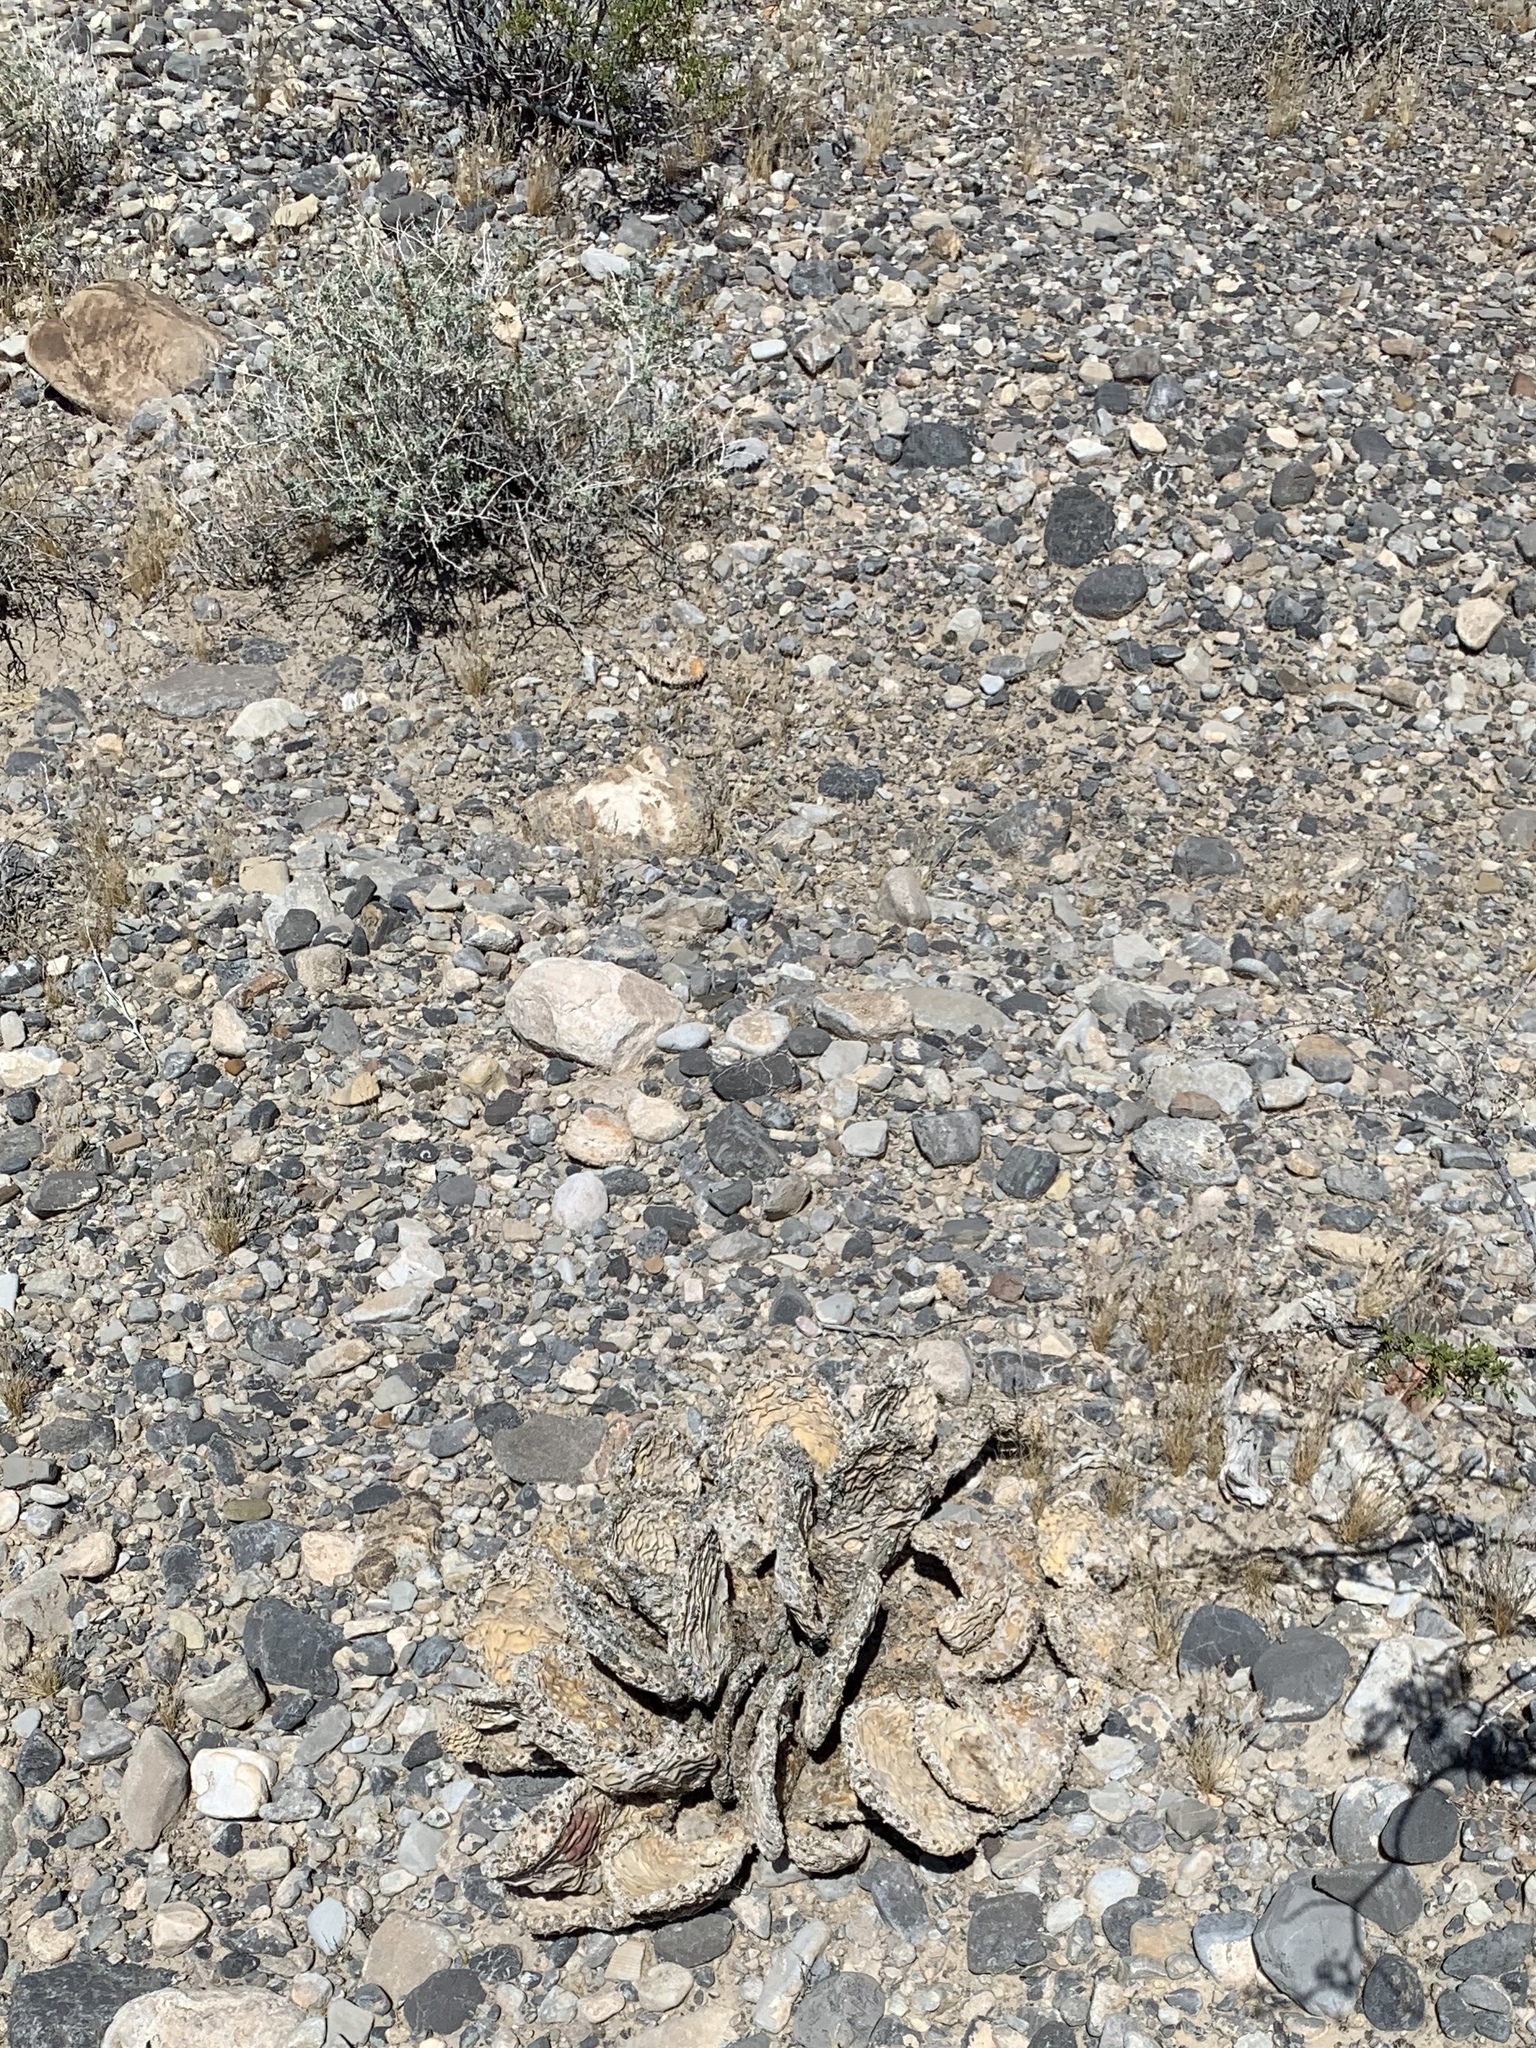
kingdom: Plantae
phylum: Tracheophyta
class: Magnoliopsida
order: Caryophyllales
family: Cactaceae
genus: Opuntia
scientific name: Opuntia basilaris
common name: Beavertail prickly-pear
